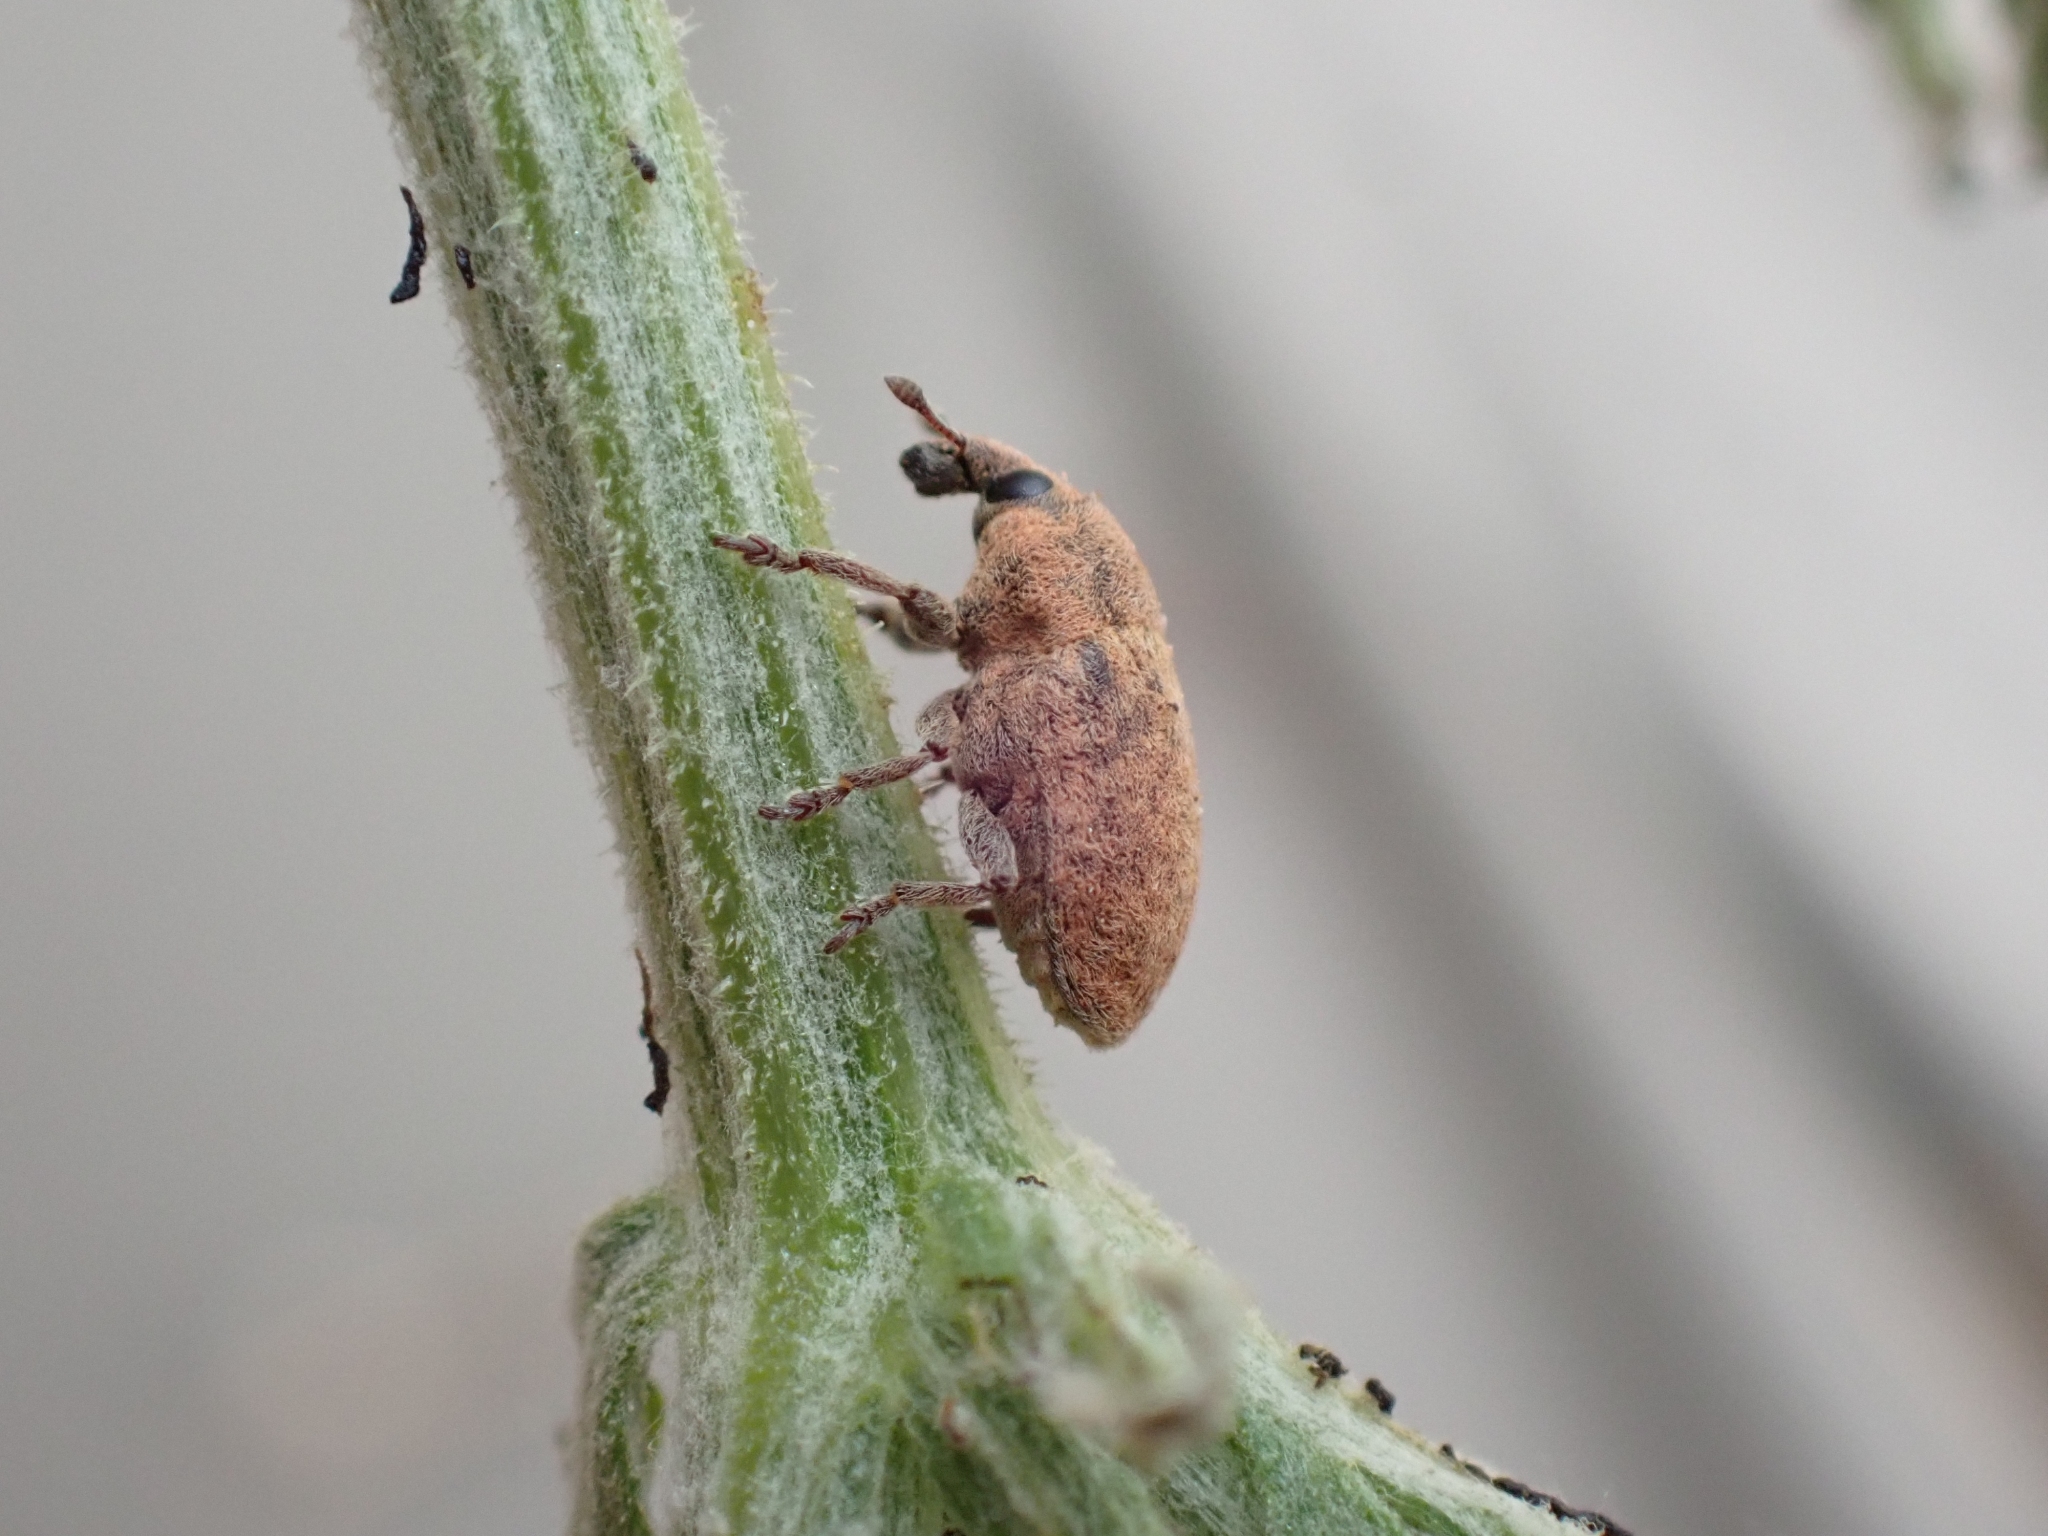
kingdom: Animalia
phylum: Arthropoda
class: Insecta
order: Coleoptera
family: Curculionidae
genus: Larinus
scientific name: Larinus minutus
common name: Weevil
